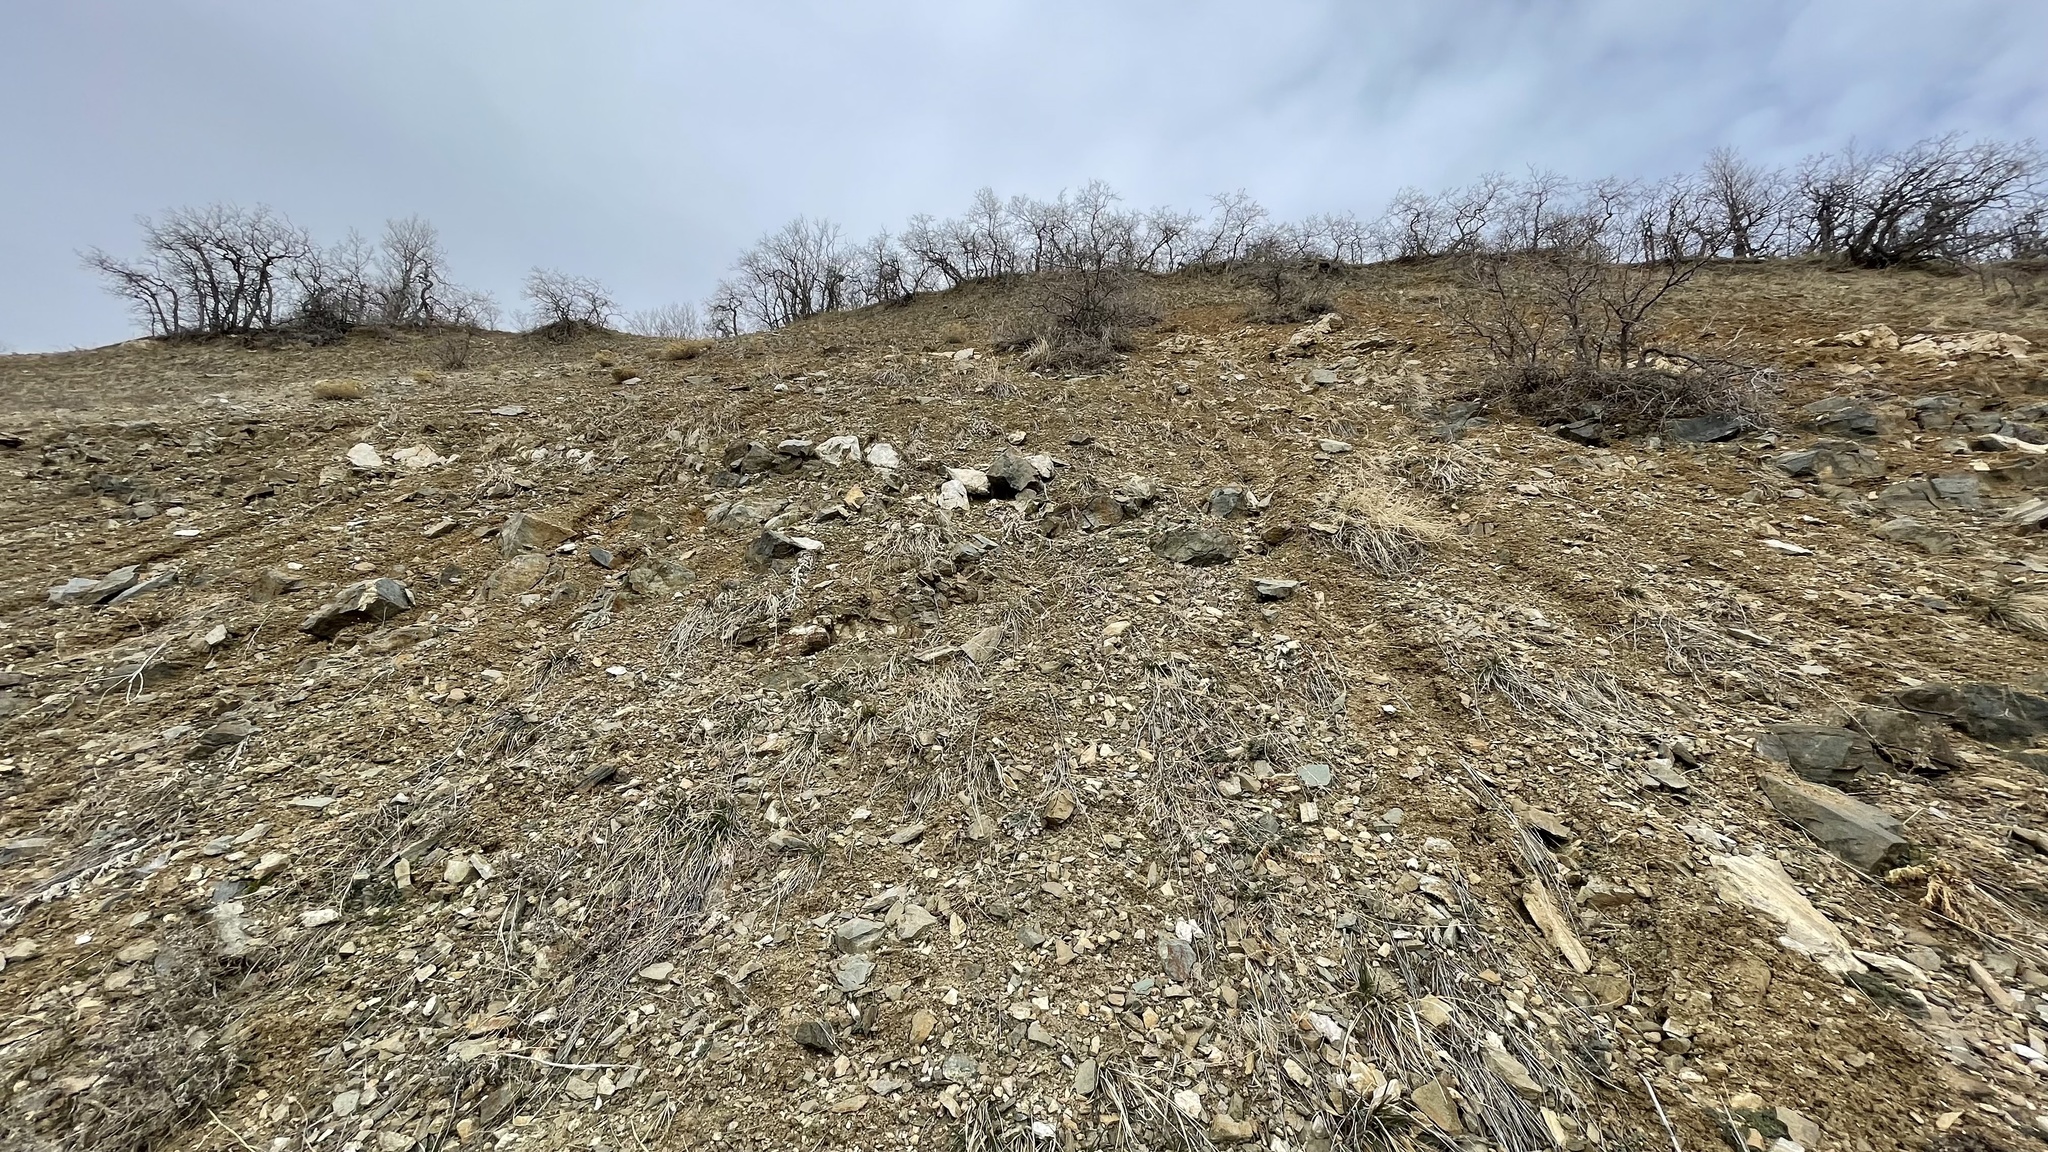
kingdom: Plantae
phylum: Tracheophyta
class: Magnoliopsida
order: Gentianales
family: Apocynaceae
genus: Asclepias
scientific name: Asclepias asperula
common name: Antelope horns
